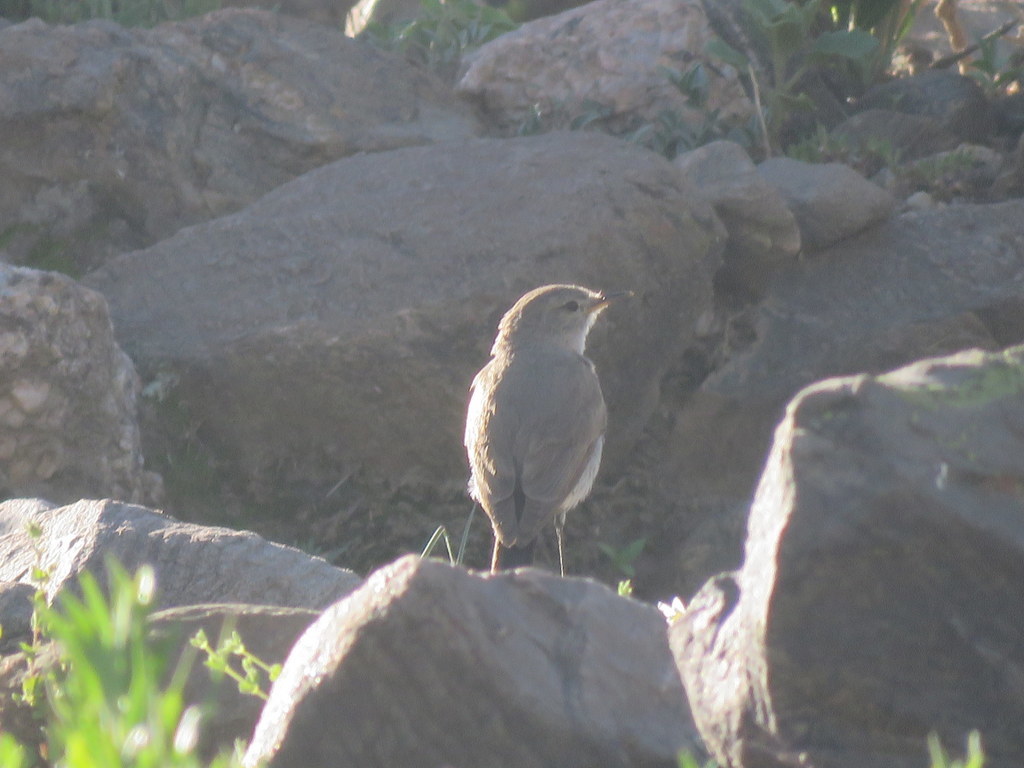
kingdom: Animalia
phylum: Chordata
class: Aves
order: Passeriformes
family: Tyrannidae
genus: Muscisaxicola
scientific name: Muscisaxicola maculirostris
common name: Spot-billed ground tyrant
